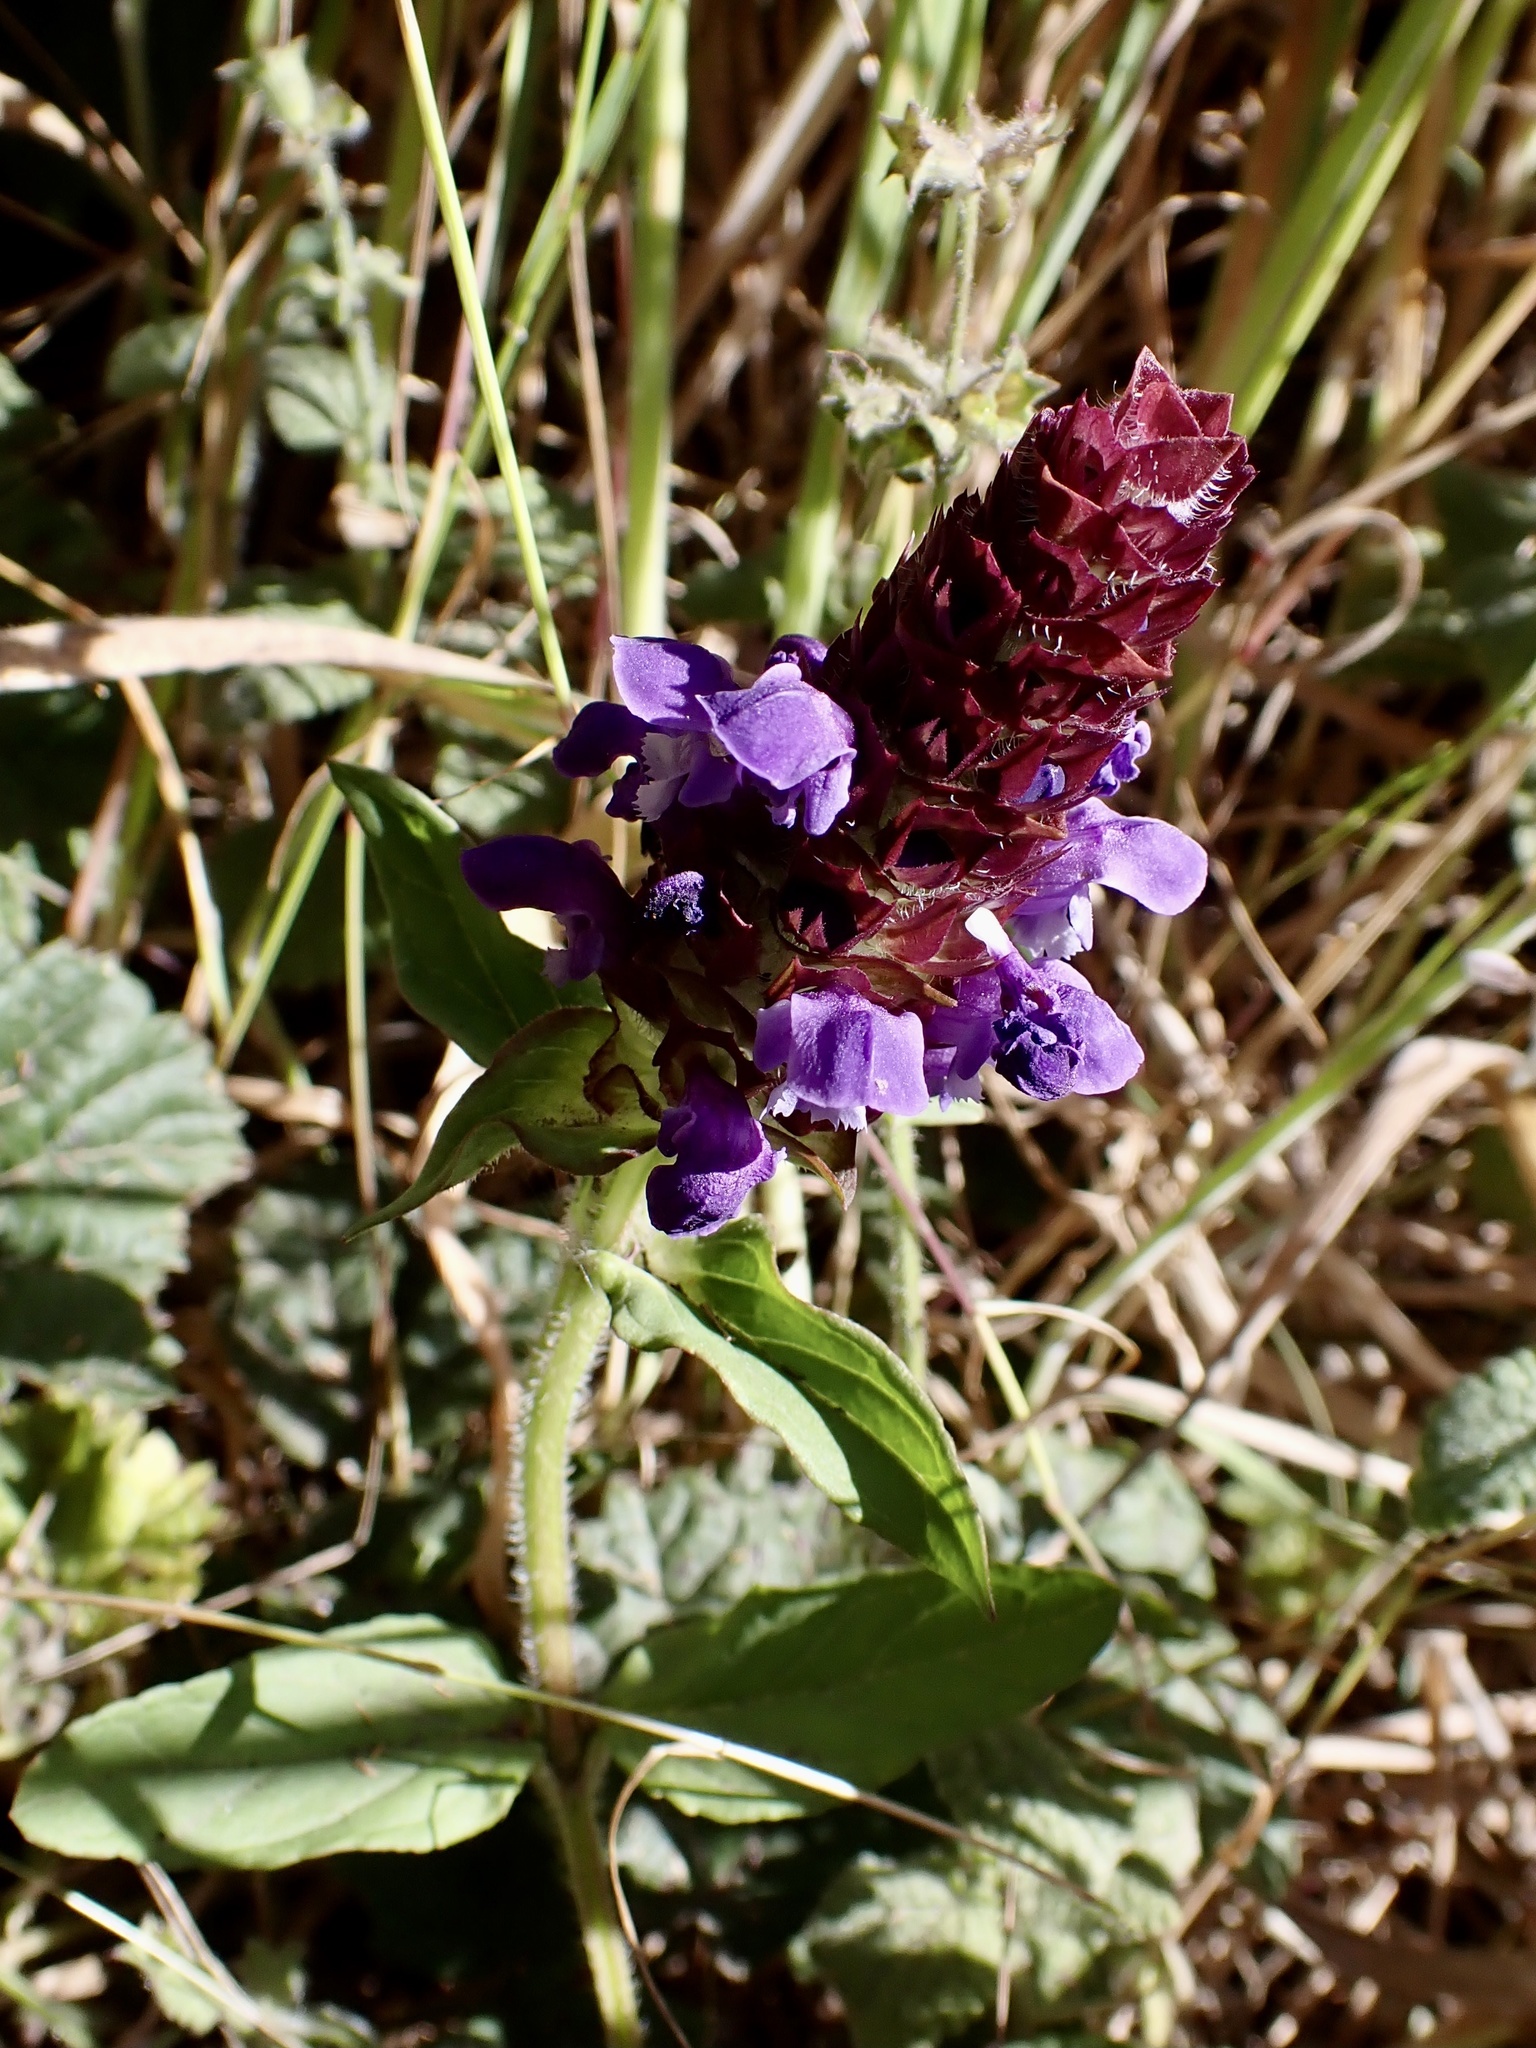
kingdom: Plantae
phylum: Tracheophyta
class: Magnoliopsida
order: Lamiales
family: Lamiaceae
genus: Prunella
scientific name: Prunella vulgaris
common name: Heal-all
